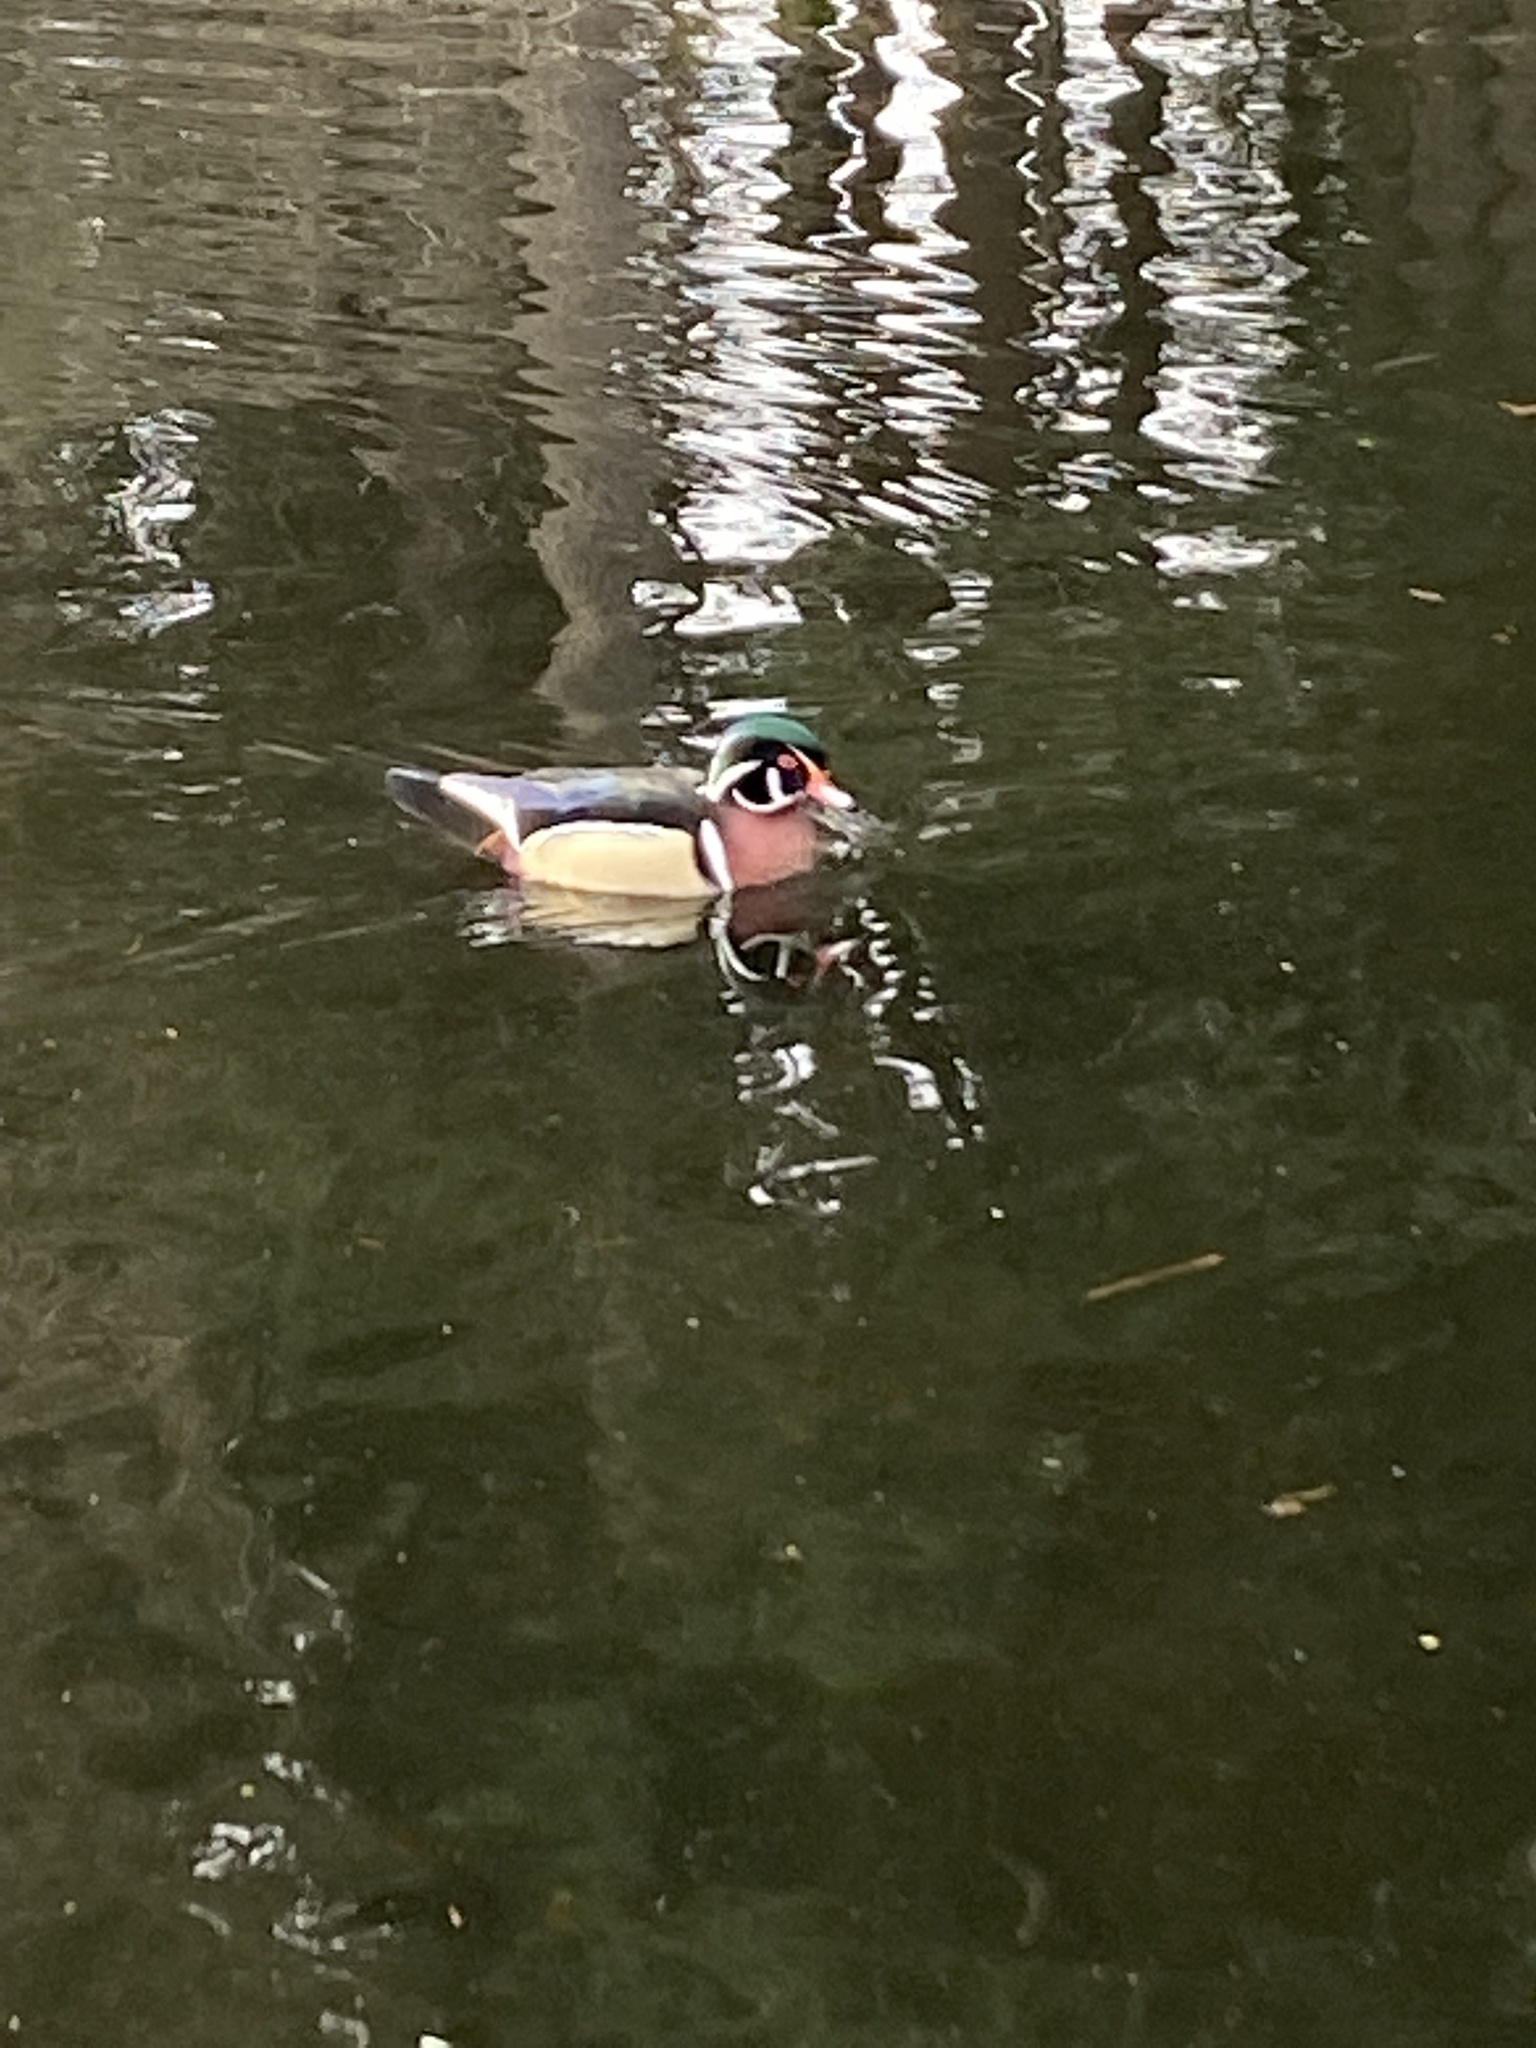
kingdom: Animalia
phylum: Chordata
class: Aves
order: Anseriformes
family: Anatidae
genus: Aix
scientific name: Aix sponsa
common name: Wood duck
